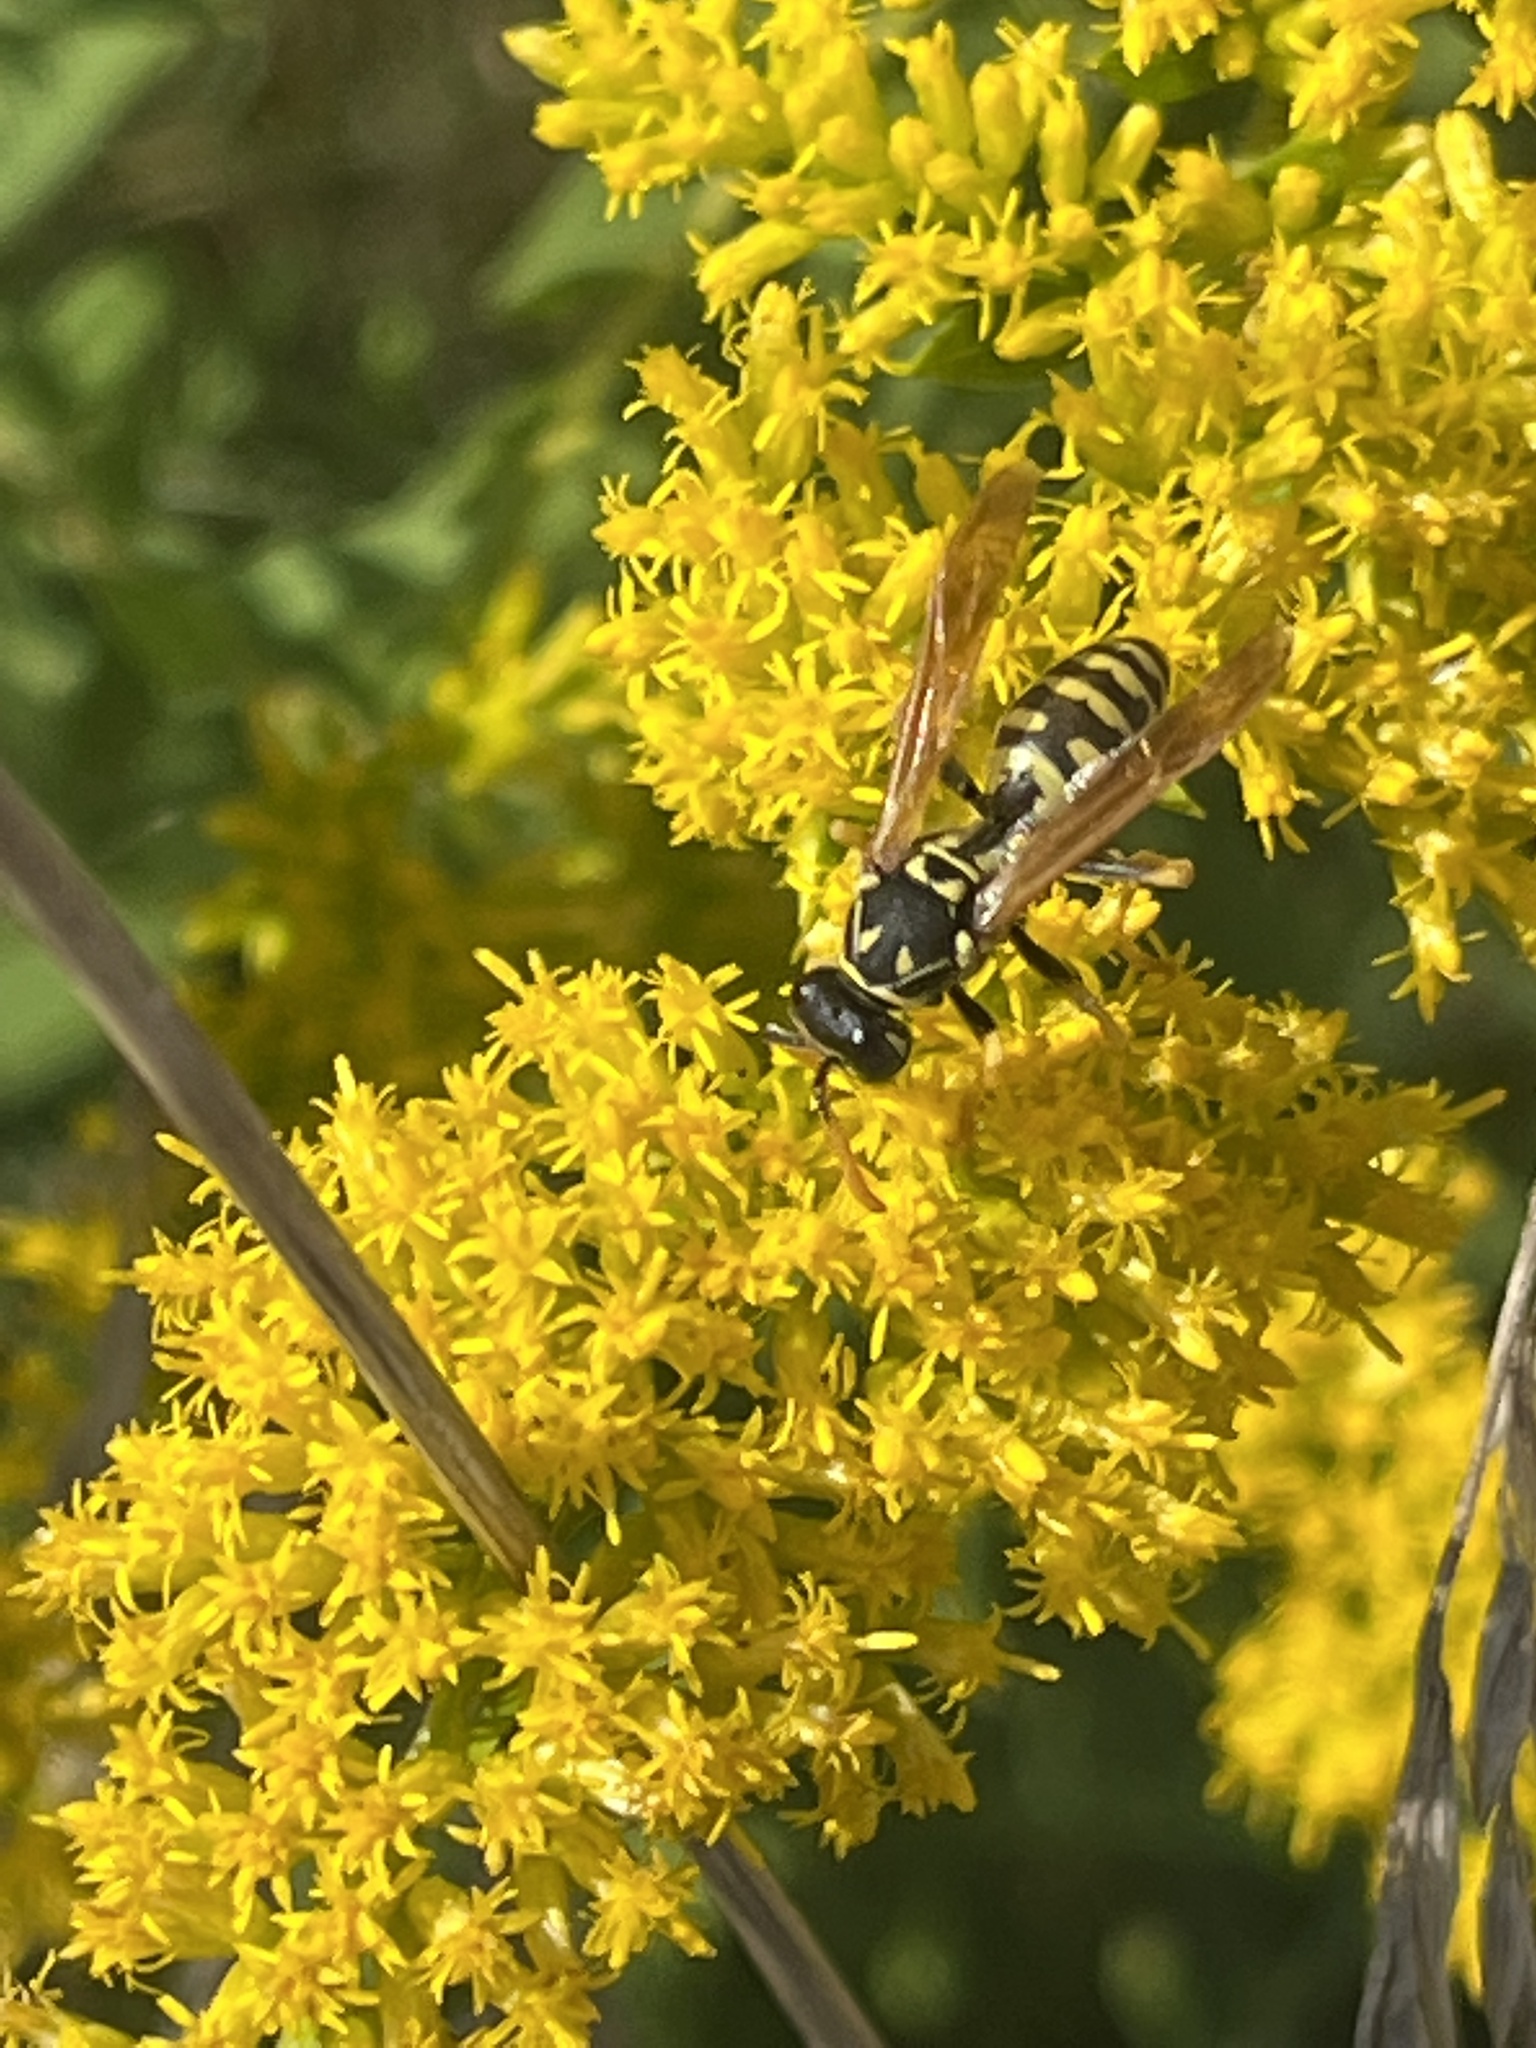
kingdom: Animalia
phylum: Arthropoda
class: Insecta
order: Hymenoptera
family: Eumenidae
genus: Polistes
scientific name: Polistes dominula
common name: Paper wasp
